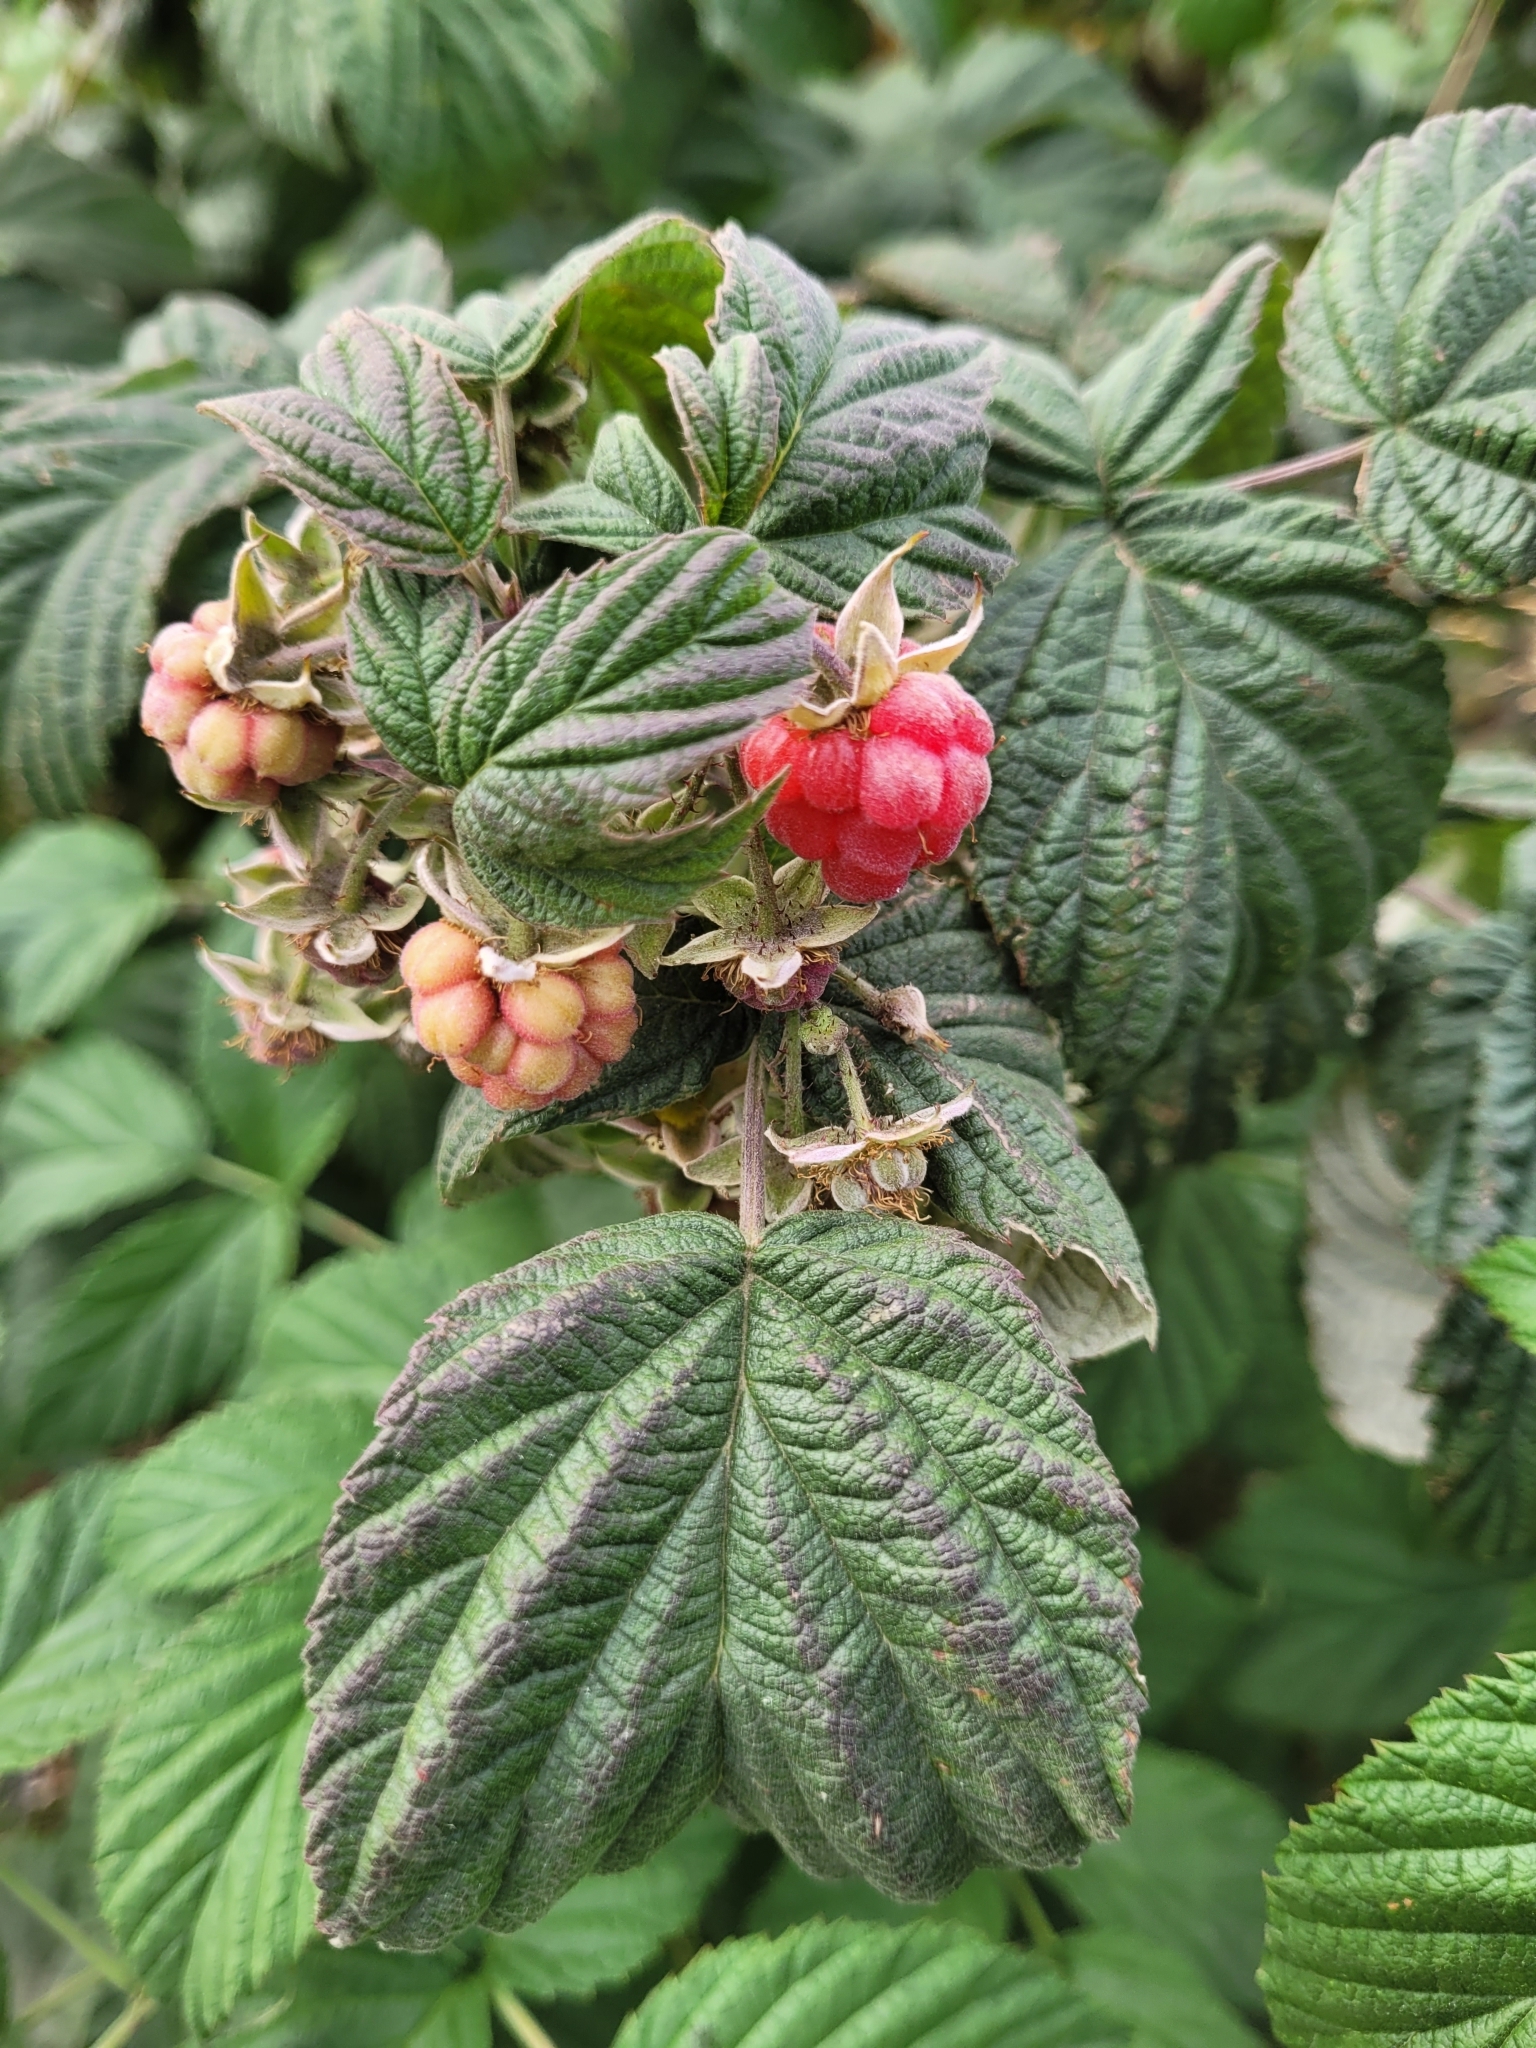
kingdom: Plantae
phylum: Tracheophyta
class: Magnoliopsida
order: Rosales
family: Rosaceae
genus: Rubus
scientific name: Rubus idaeus
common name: Raspberry
